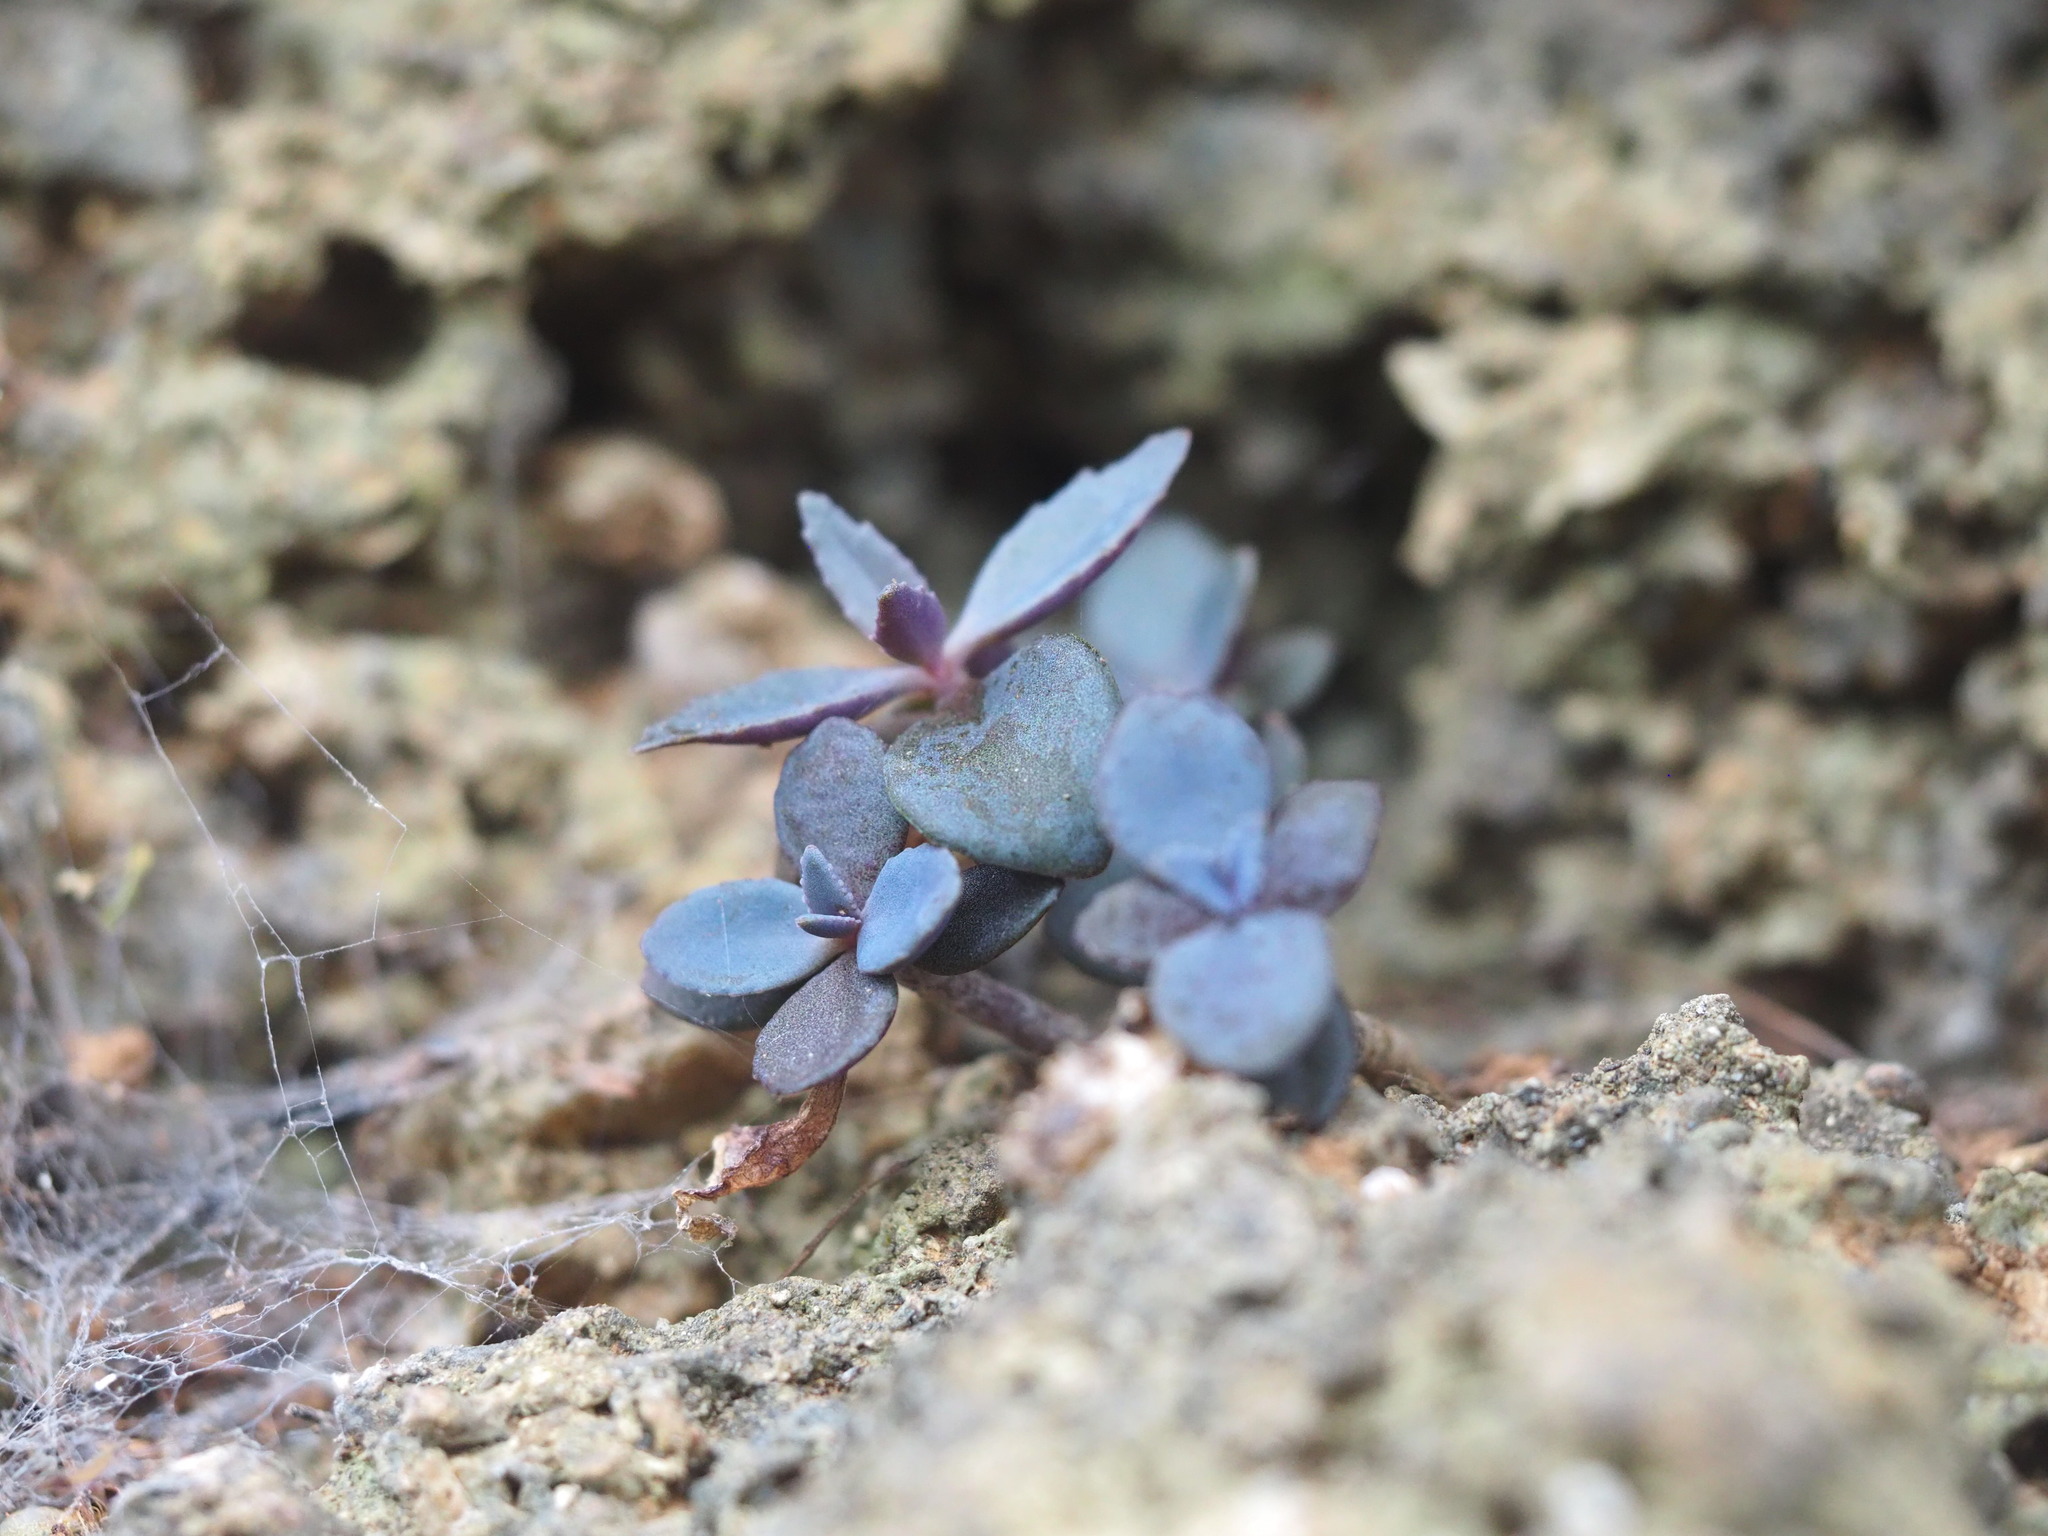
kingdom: Plantae
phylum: Tracheophyta
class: Magnoliopsida
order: Saxifragales
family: Crassulaceae
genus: Kalanchoe
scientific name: Kalanchoe integra
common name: Neverdie
